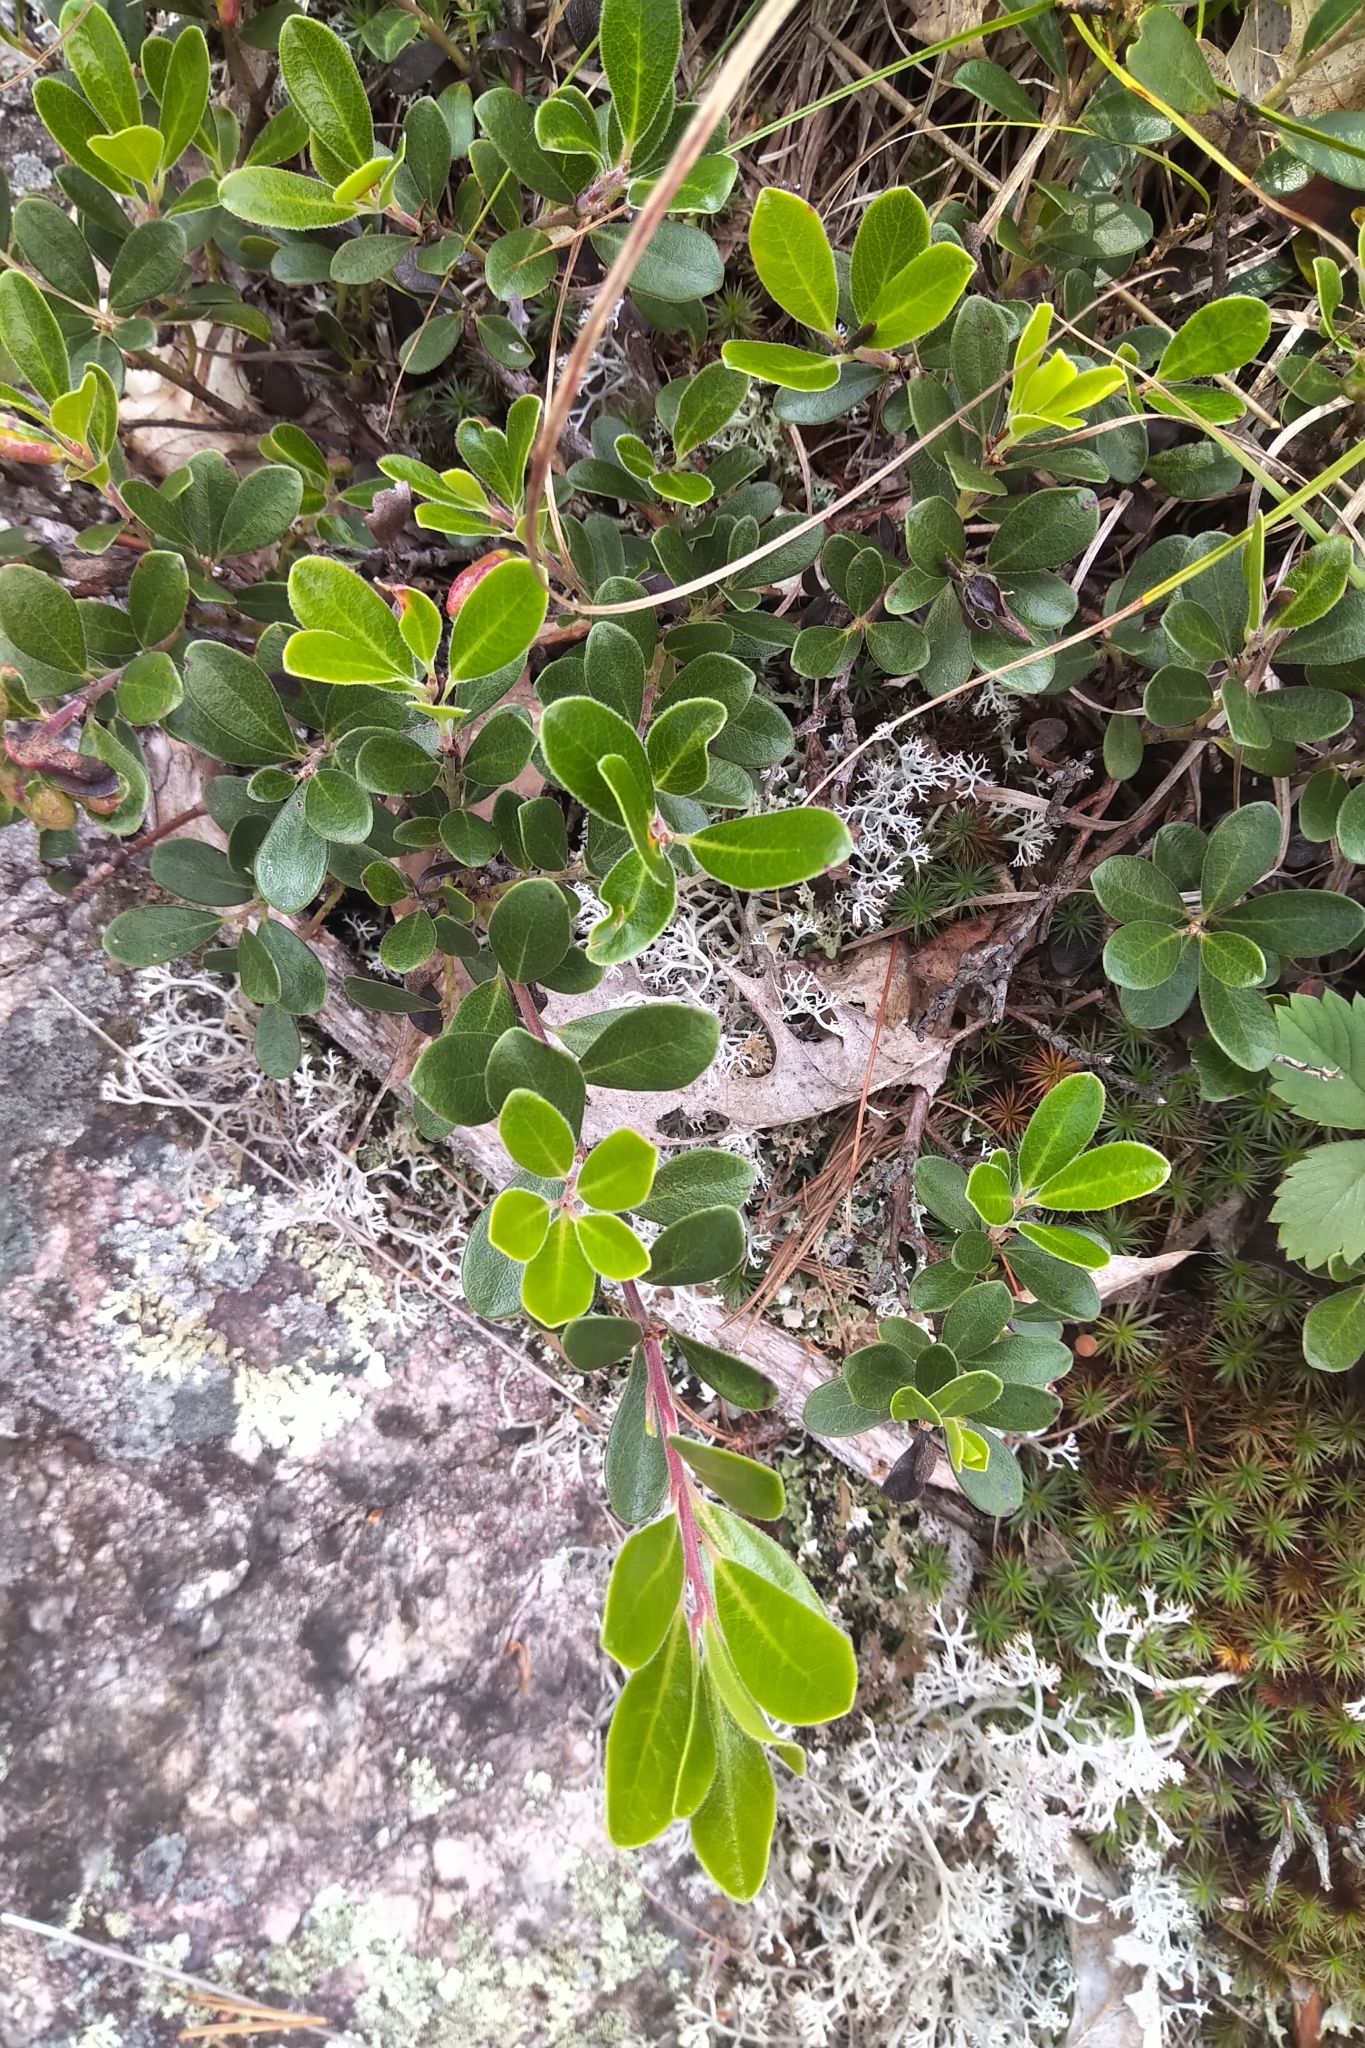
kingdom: Plantae
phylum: Tracheophyta
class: Magnoliopsida
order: Ericales
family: Ericaceae
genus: Arctostaphylos
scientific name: Arctostaphylos uva-ursi
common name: Bearberry
